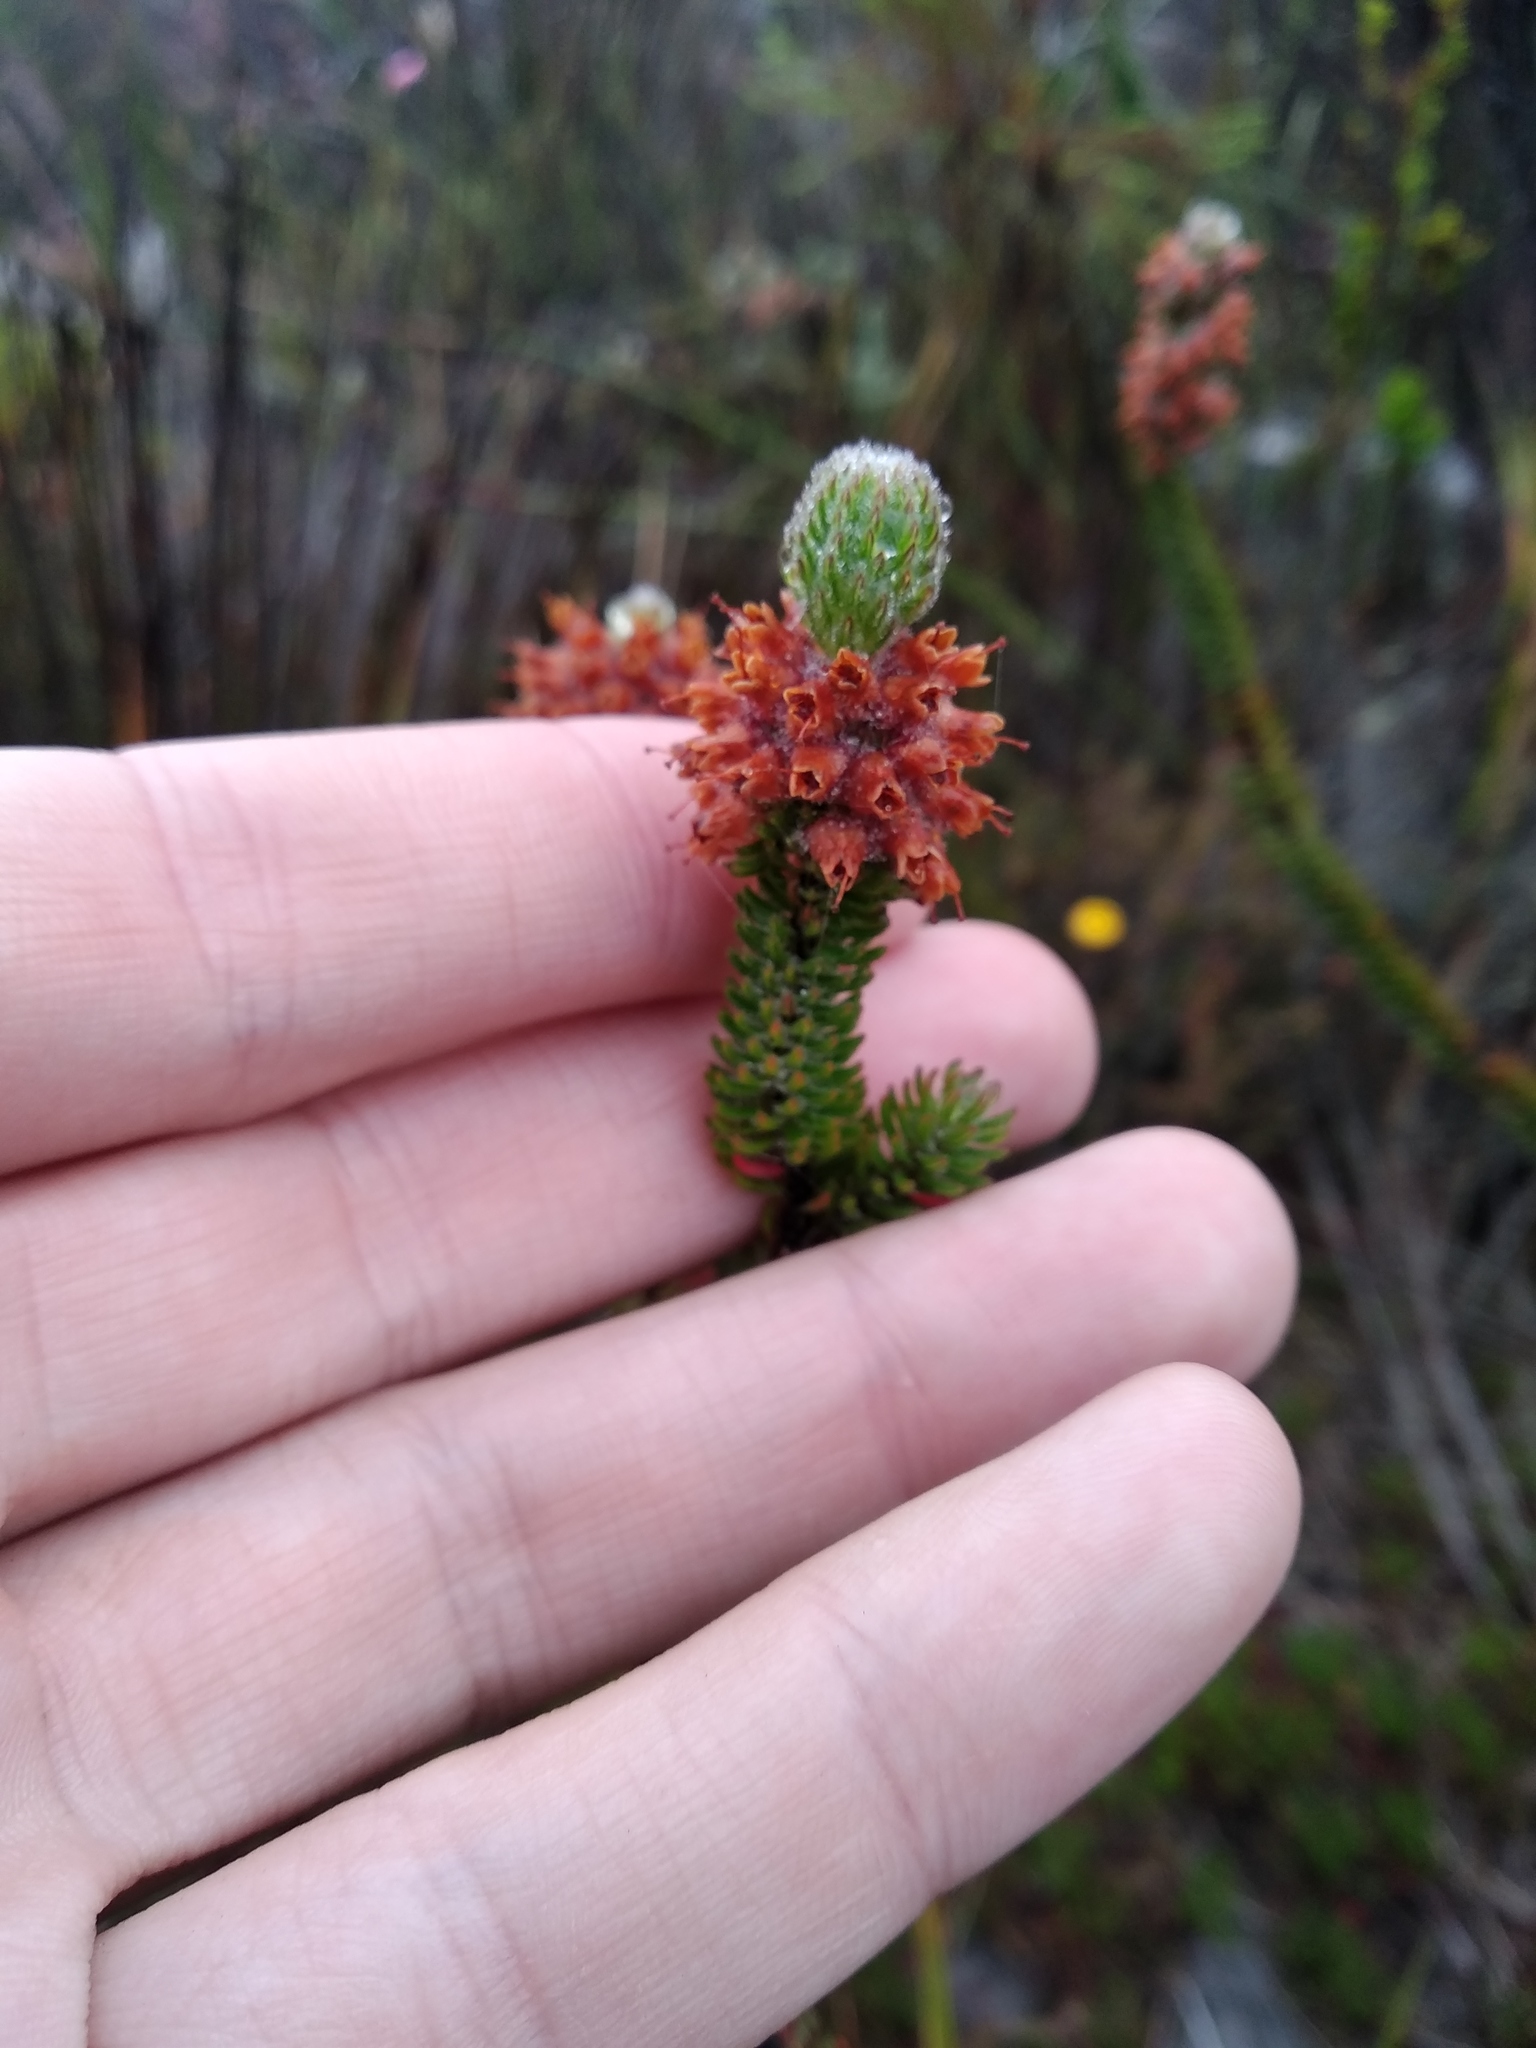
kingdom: Plantae
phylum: Tracheophyta
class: Magnoliopsida
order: Ericales
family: Ericaceae
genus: Erica
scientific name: Erica empetrina
